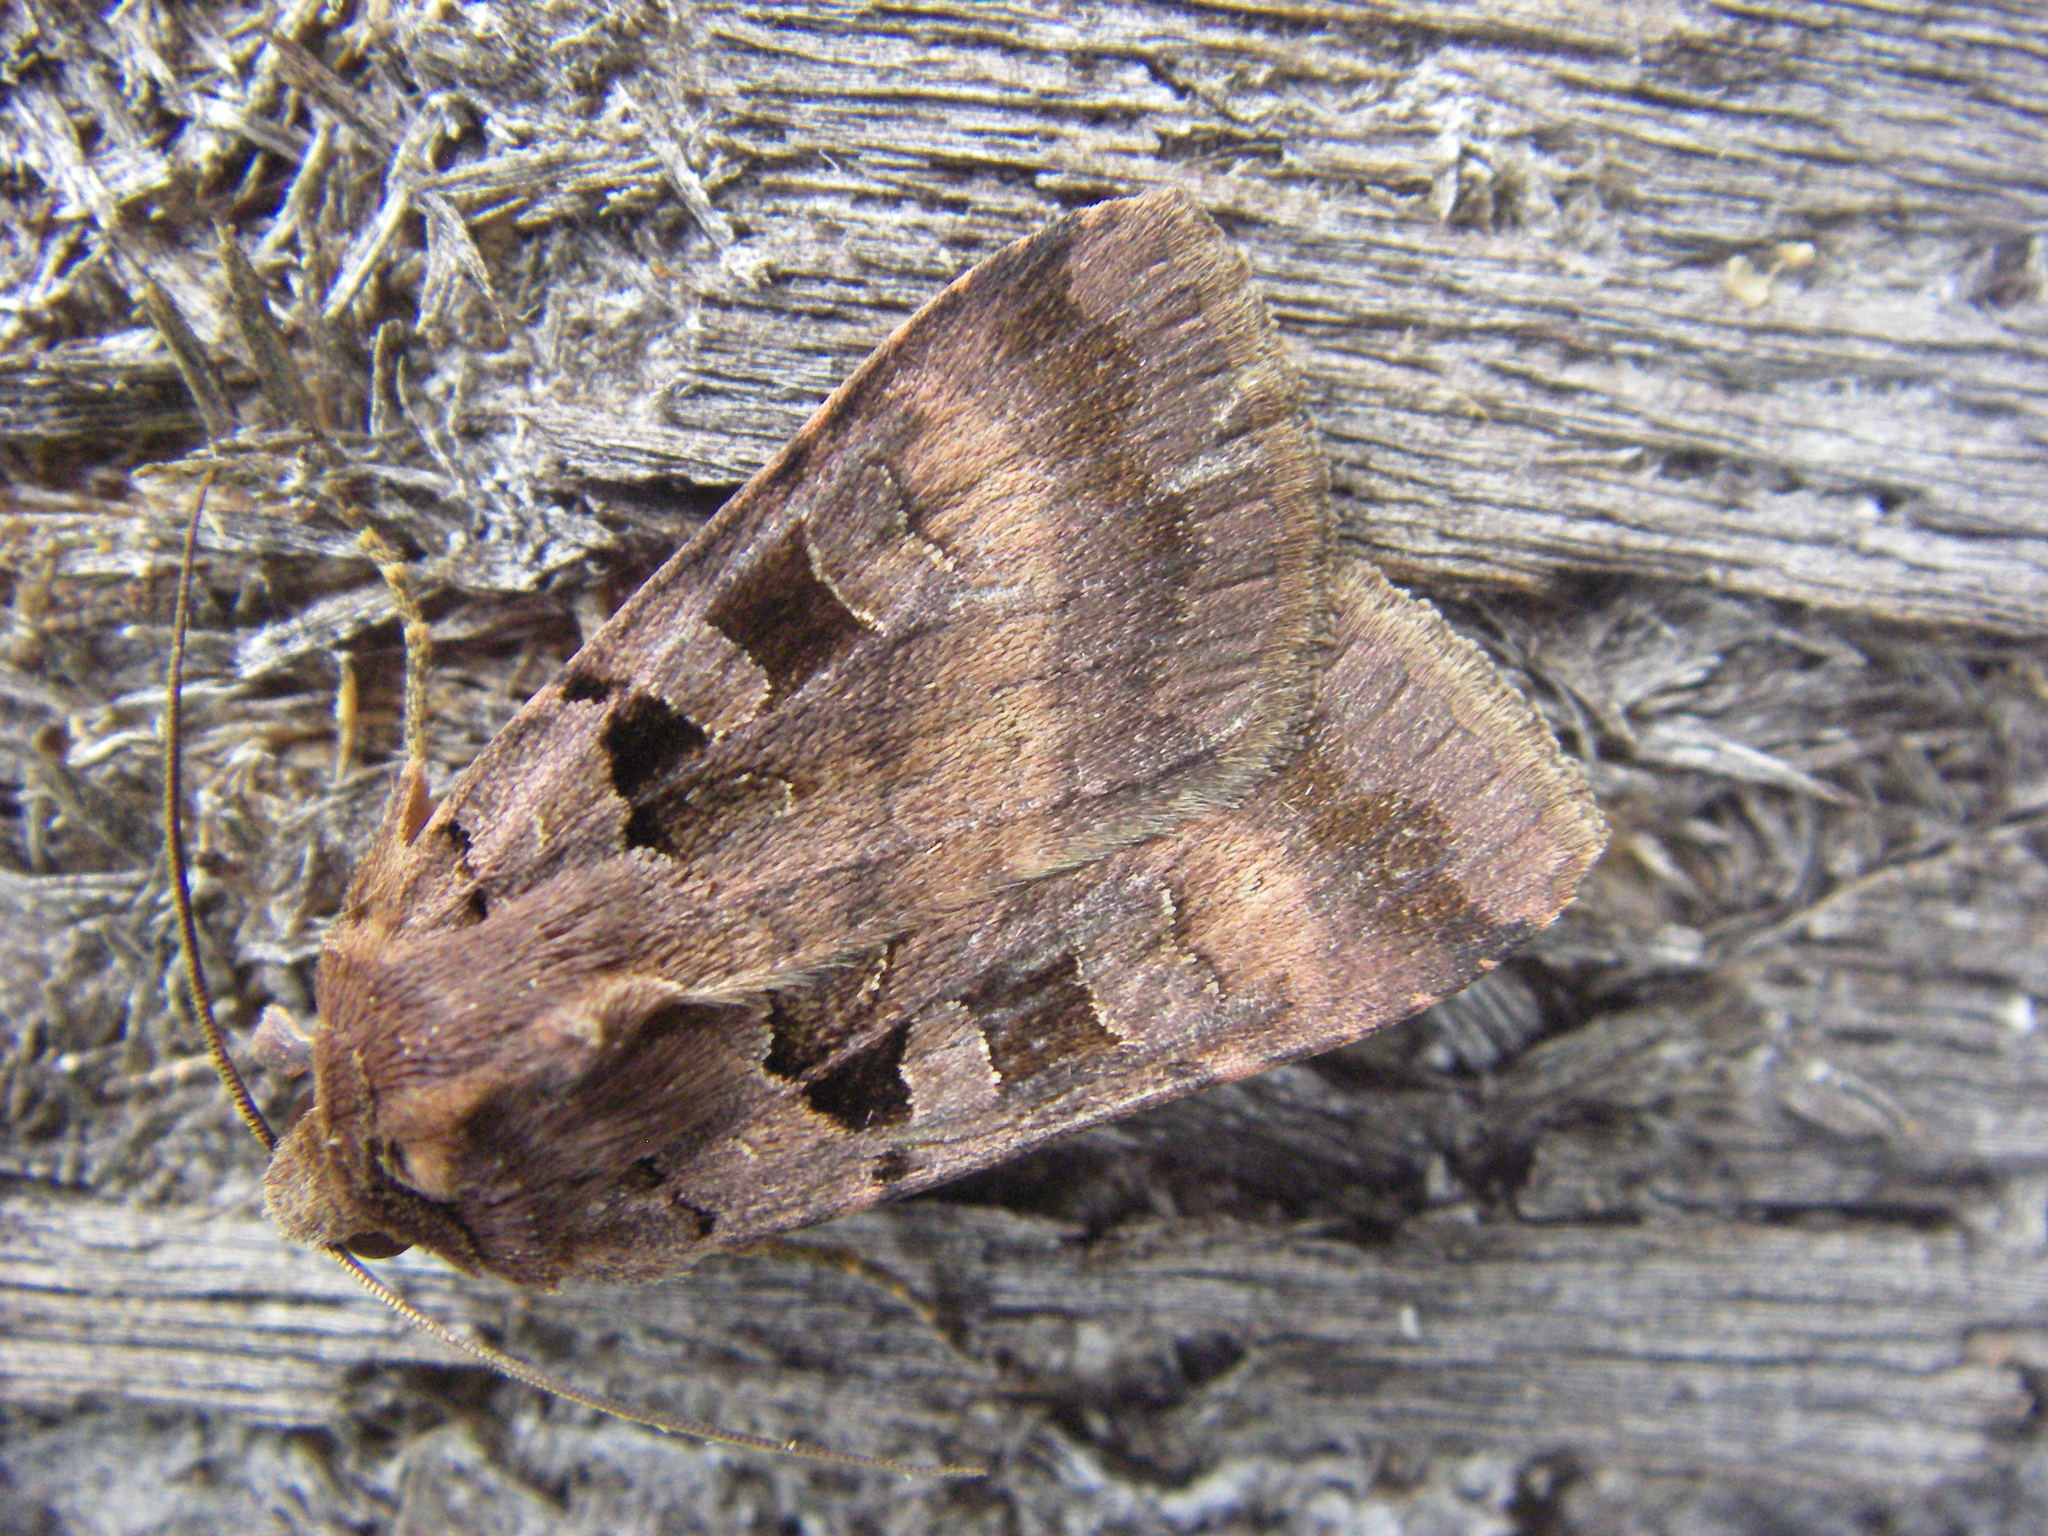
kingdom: Animalia
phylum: Arthropoda
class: Insecta
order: Lepidoptera
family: Noctuidae
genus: Xestia
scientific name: Xestia stigmatica
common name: Square-spotted clay
